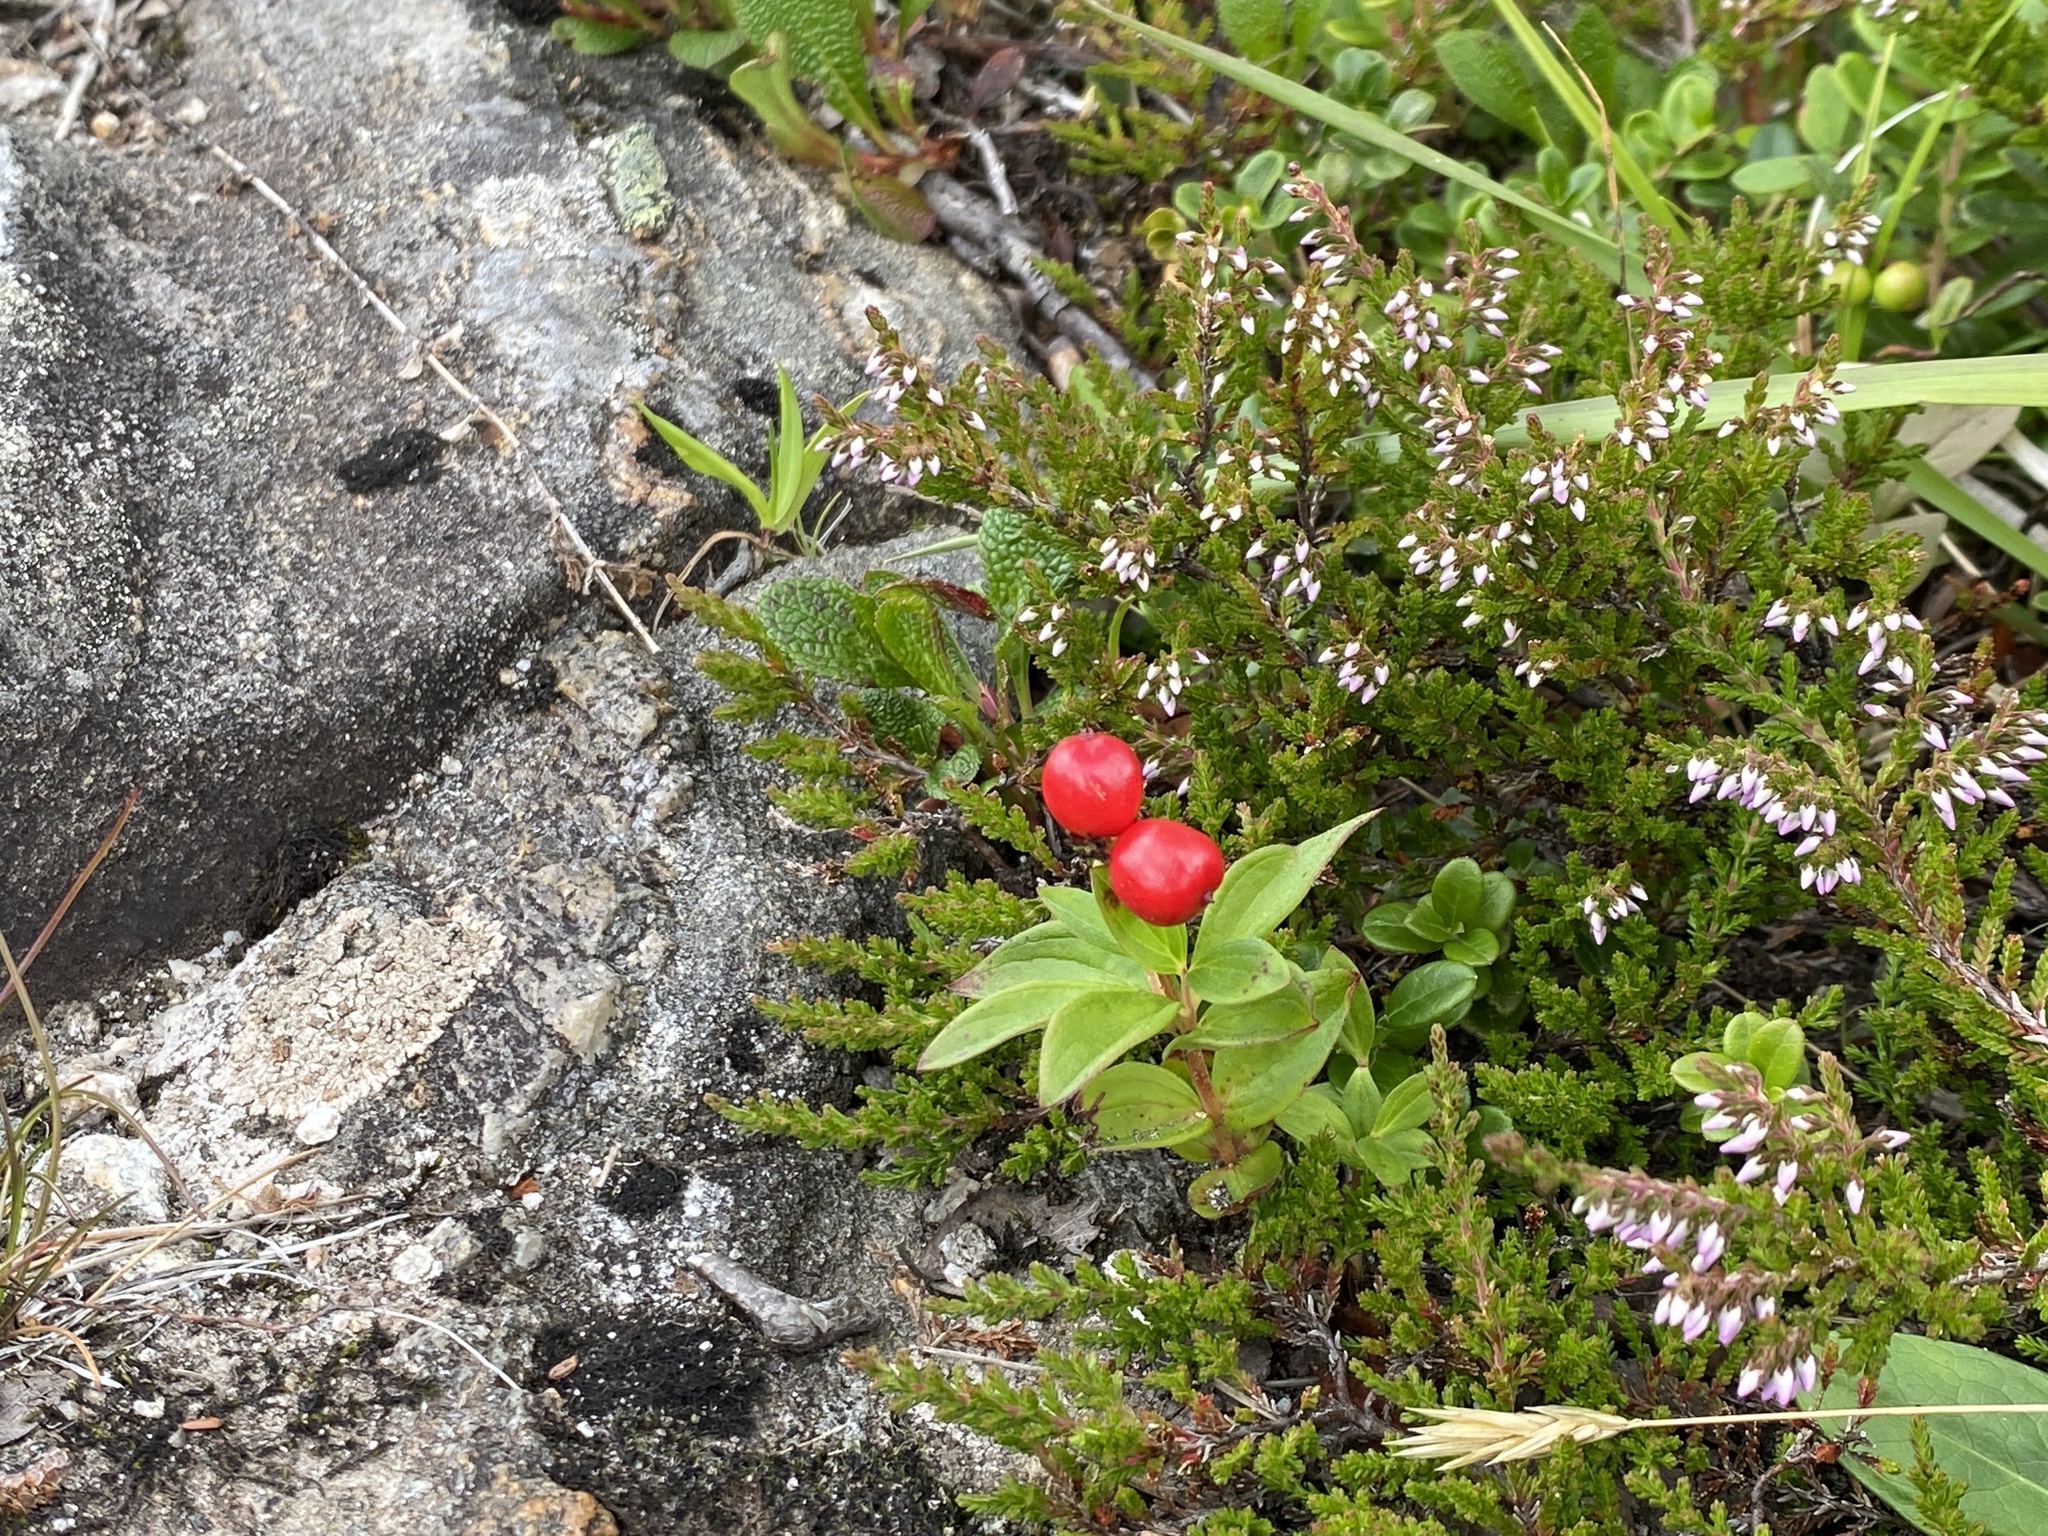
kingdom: Plantae
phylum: Tracheophyta
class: Magnoliopsida
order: Cornales
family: Cornaceae
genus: Cornus
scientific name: Cornus suecica
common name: Dwarf cornel
